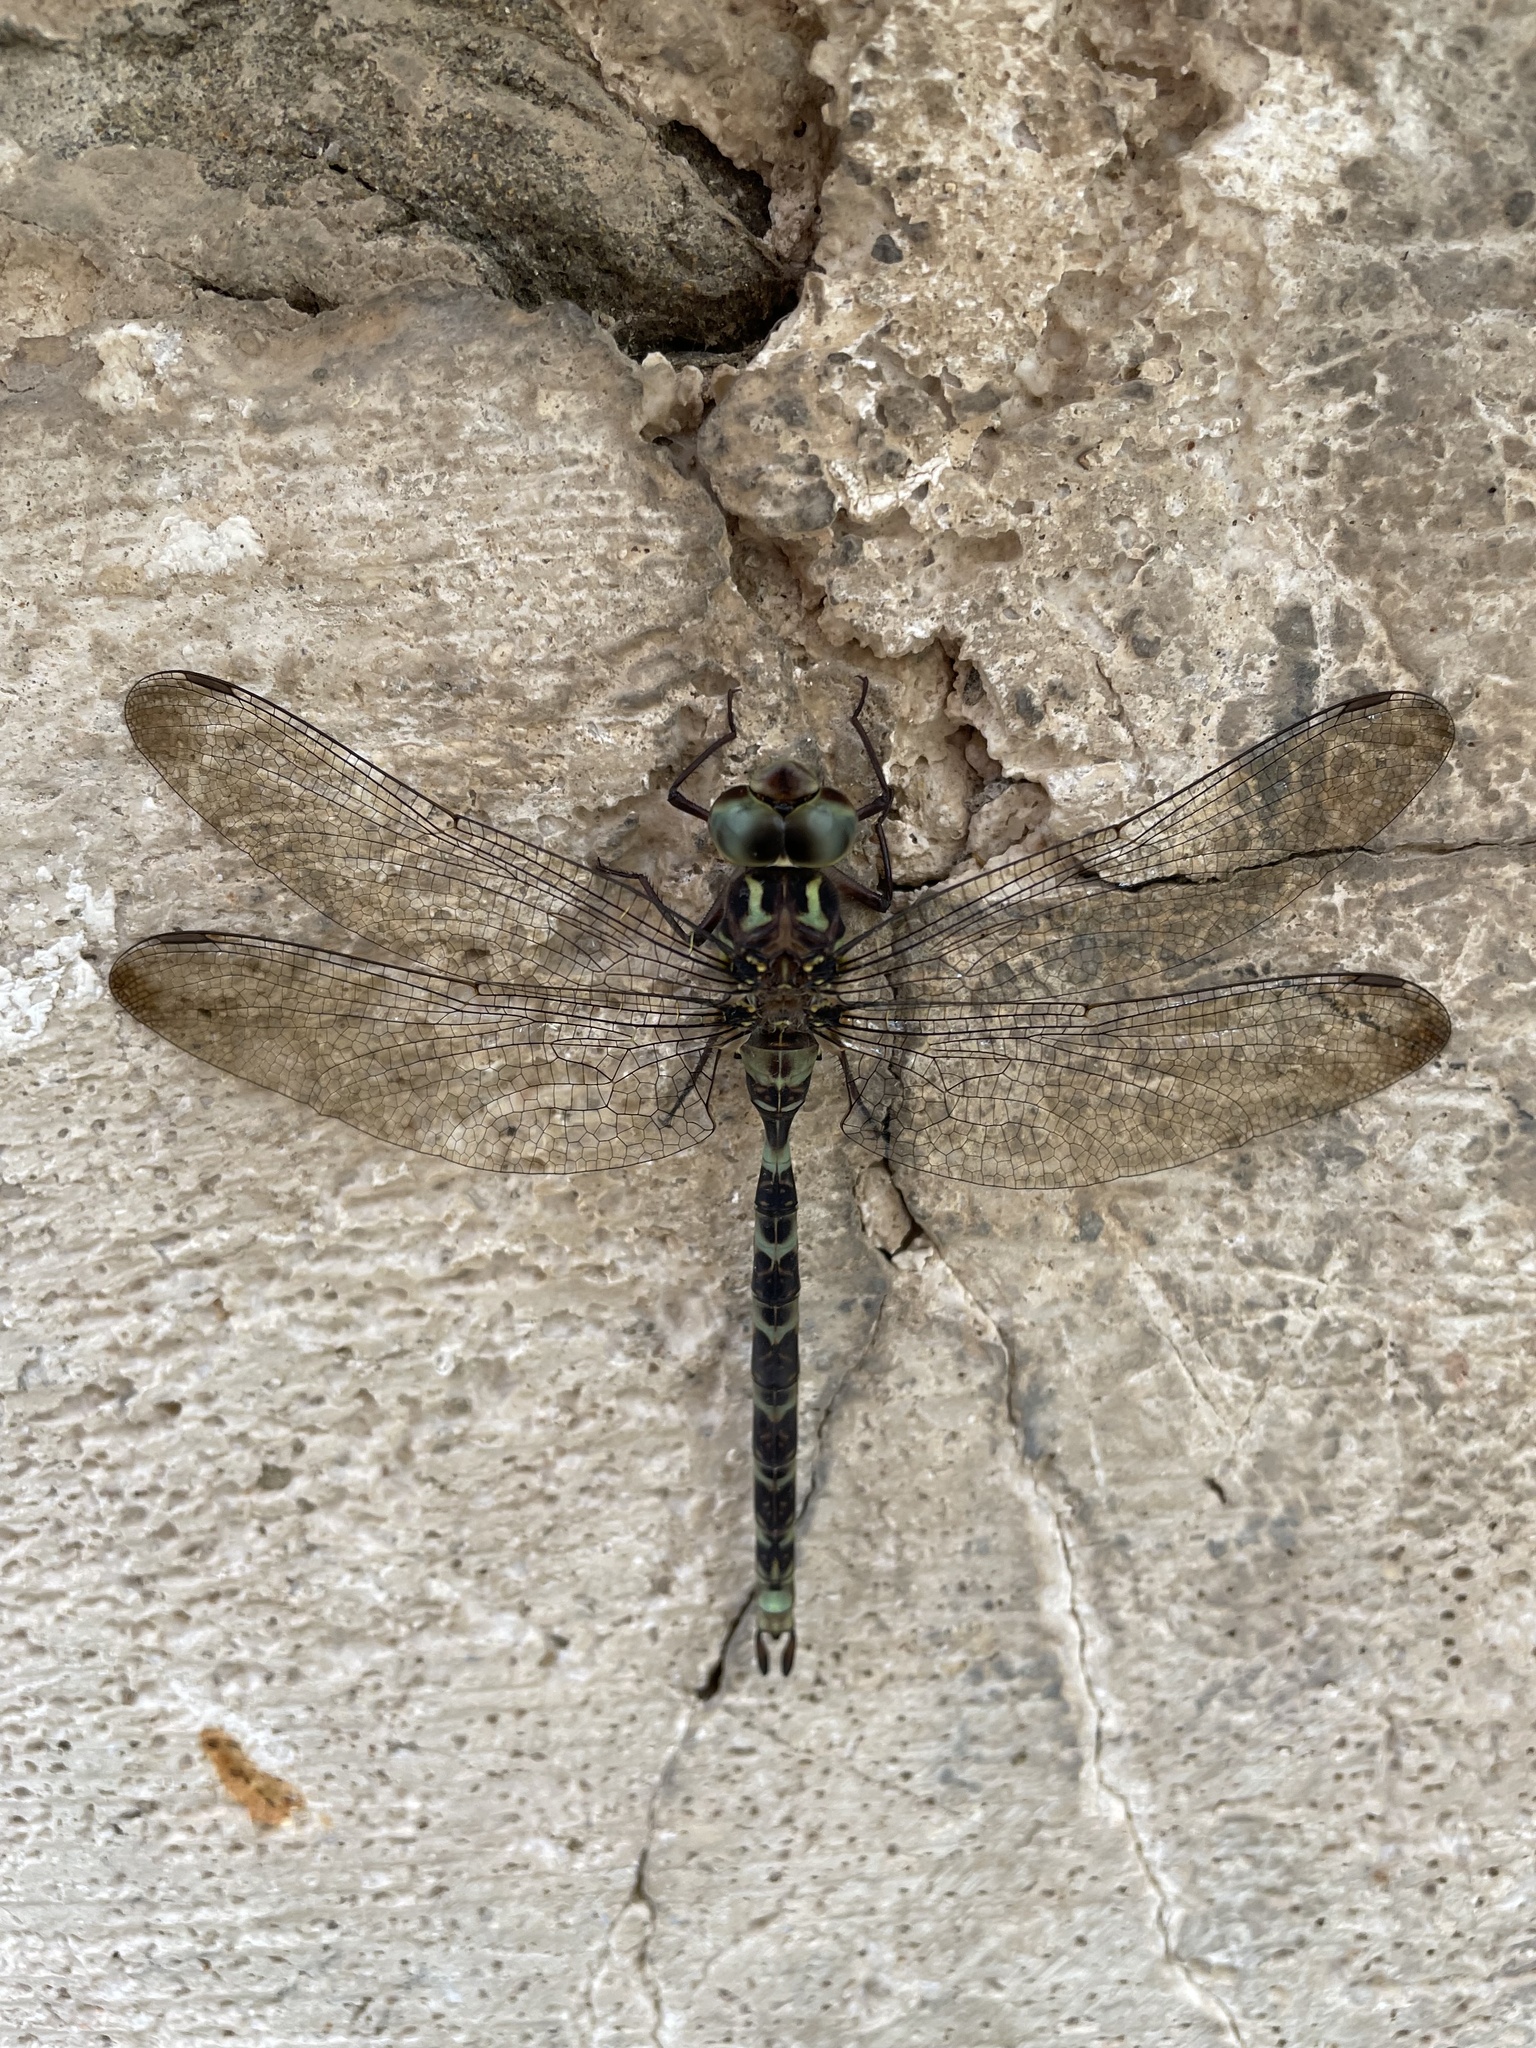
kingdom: Animalia
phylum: Arthropoda
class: Insecta
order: Odonata
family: Aeshnidae
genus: Boyeria
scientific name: Boyeria irene
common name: Western spectre
